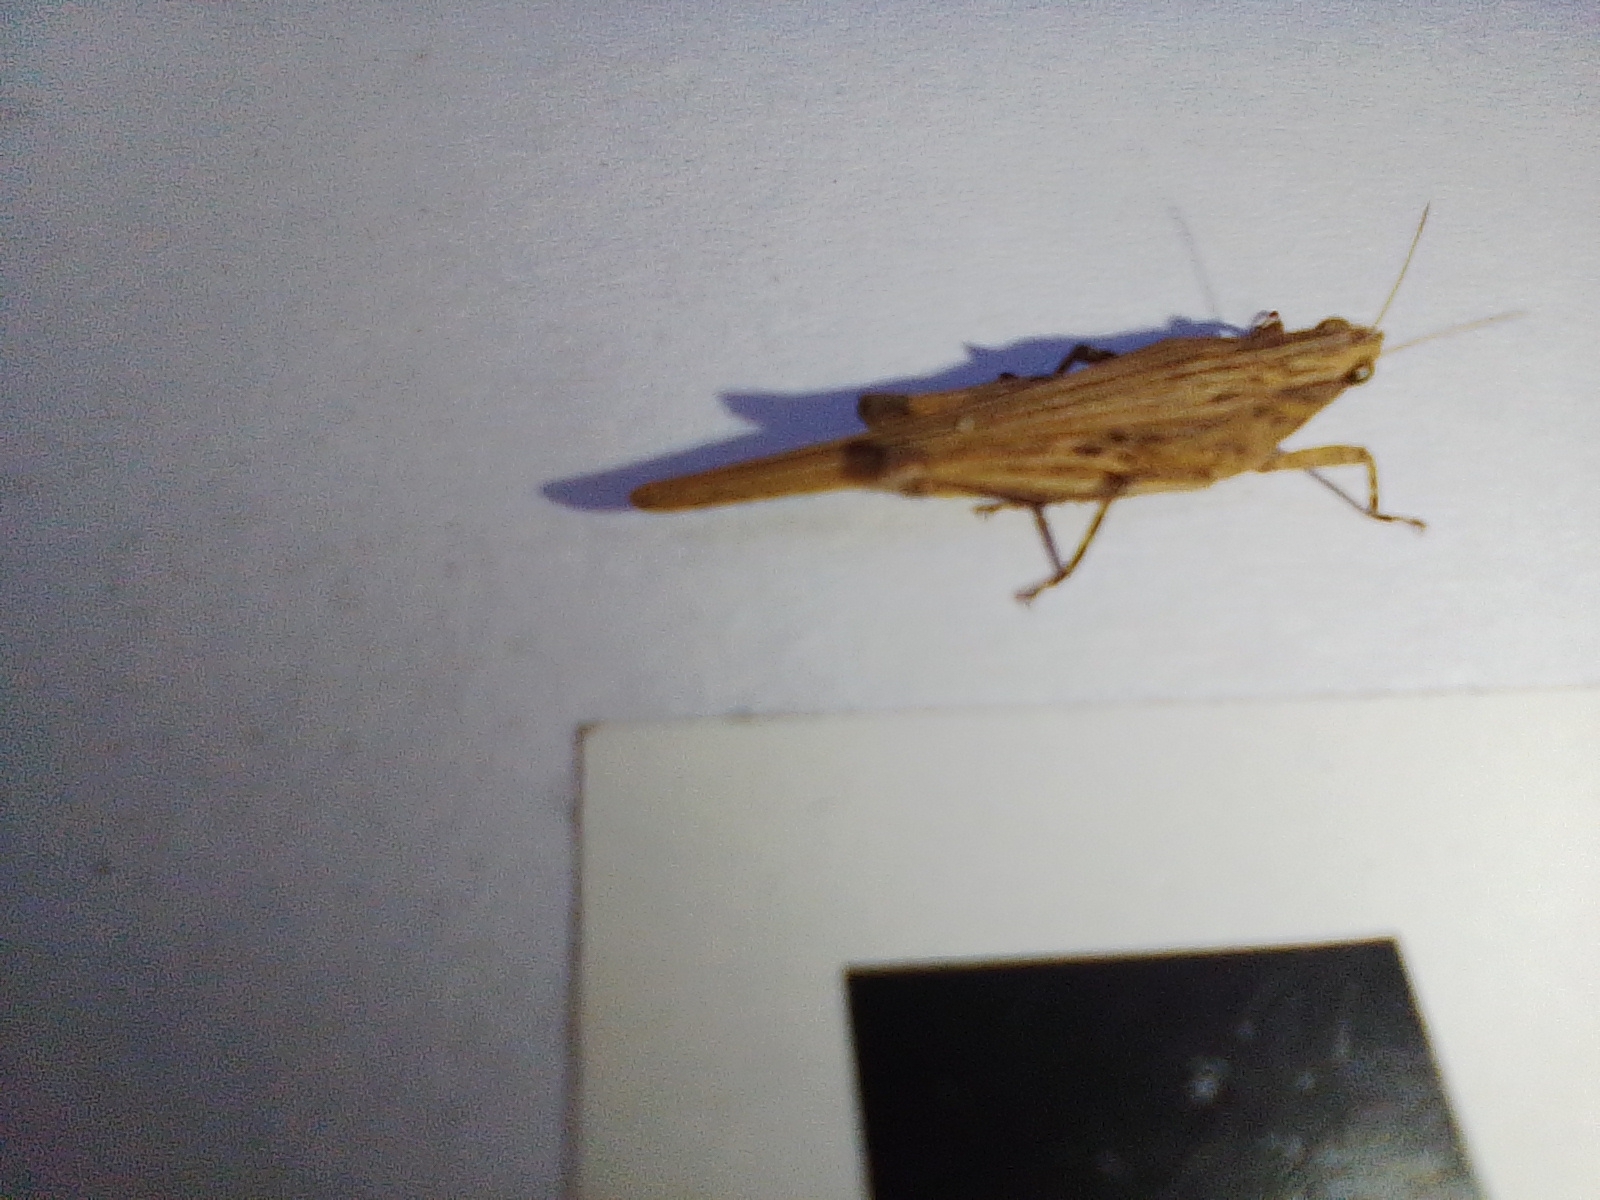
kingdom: Animalia
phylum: Arthropoda
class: Insecta
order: Orthoptera
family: Tetrigidae
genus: Lophoscirtus
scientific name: Lophoscirtus gracilis
